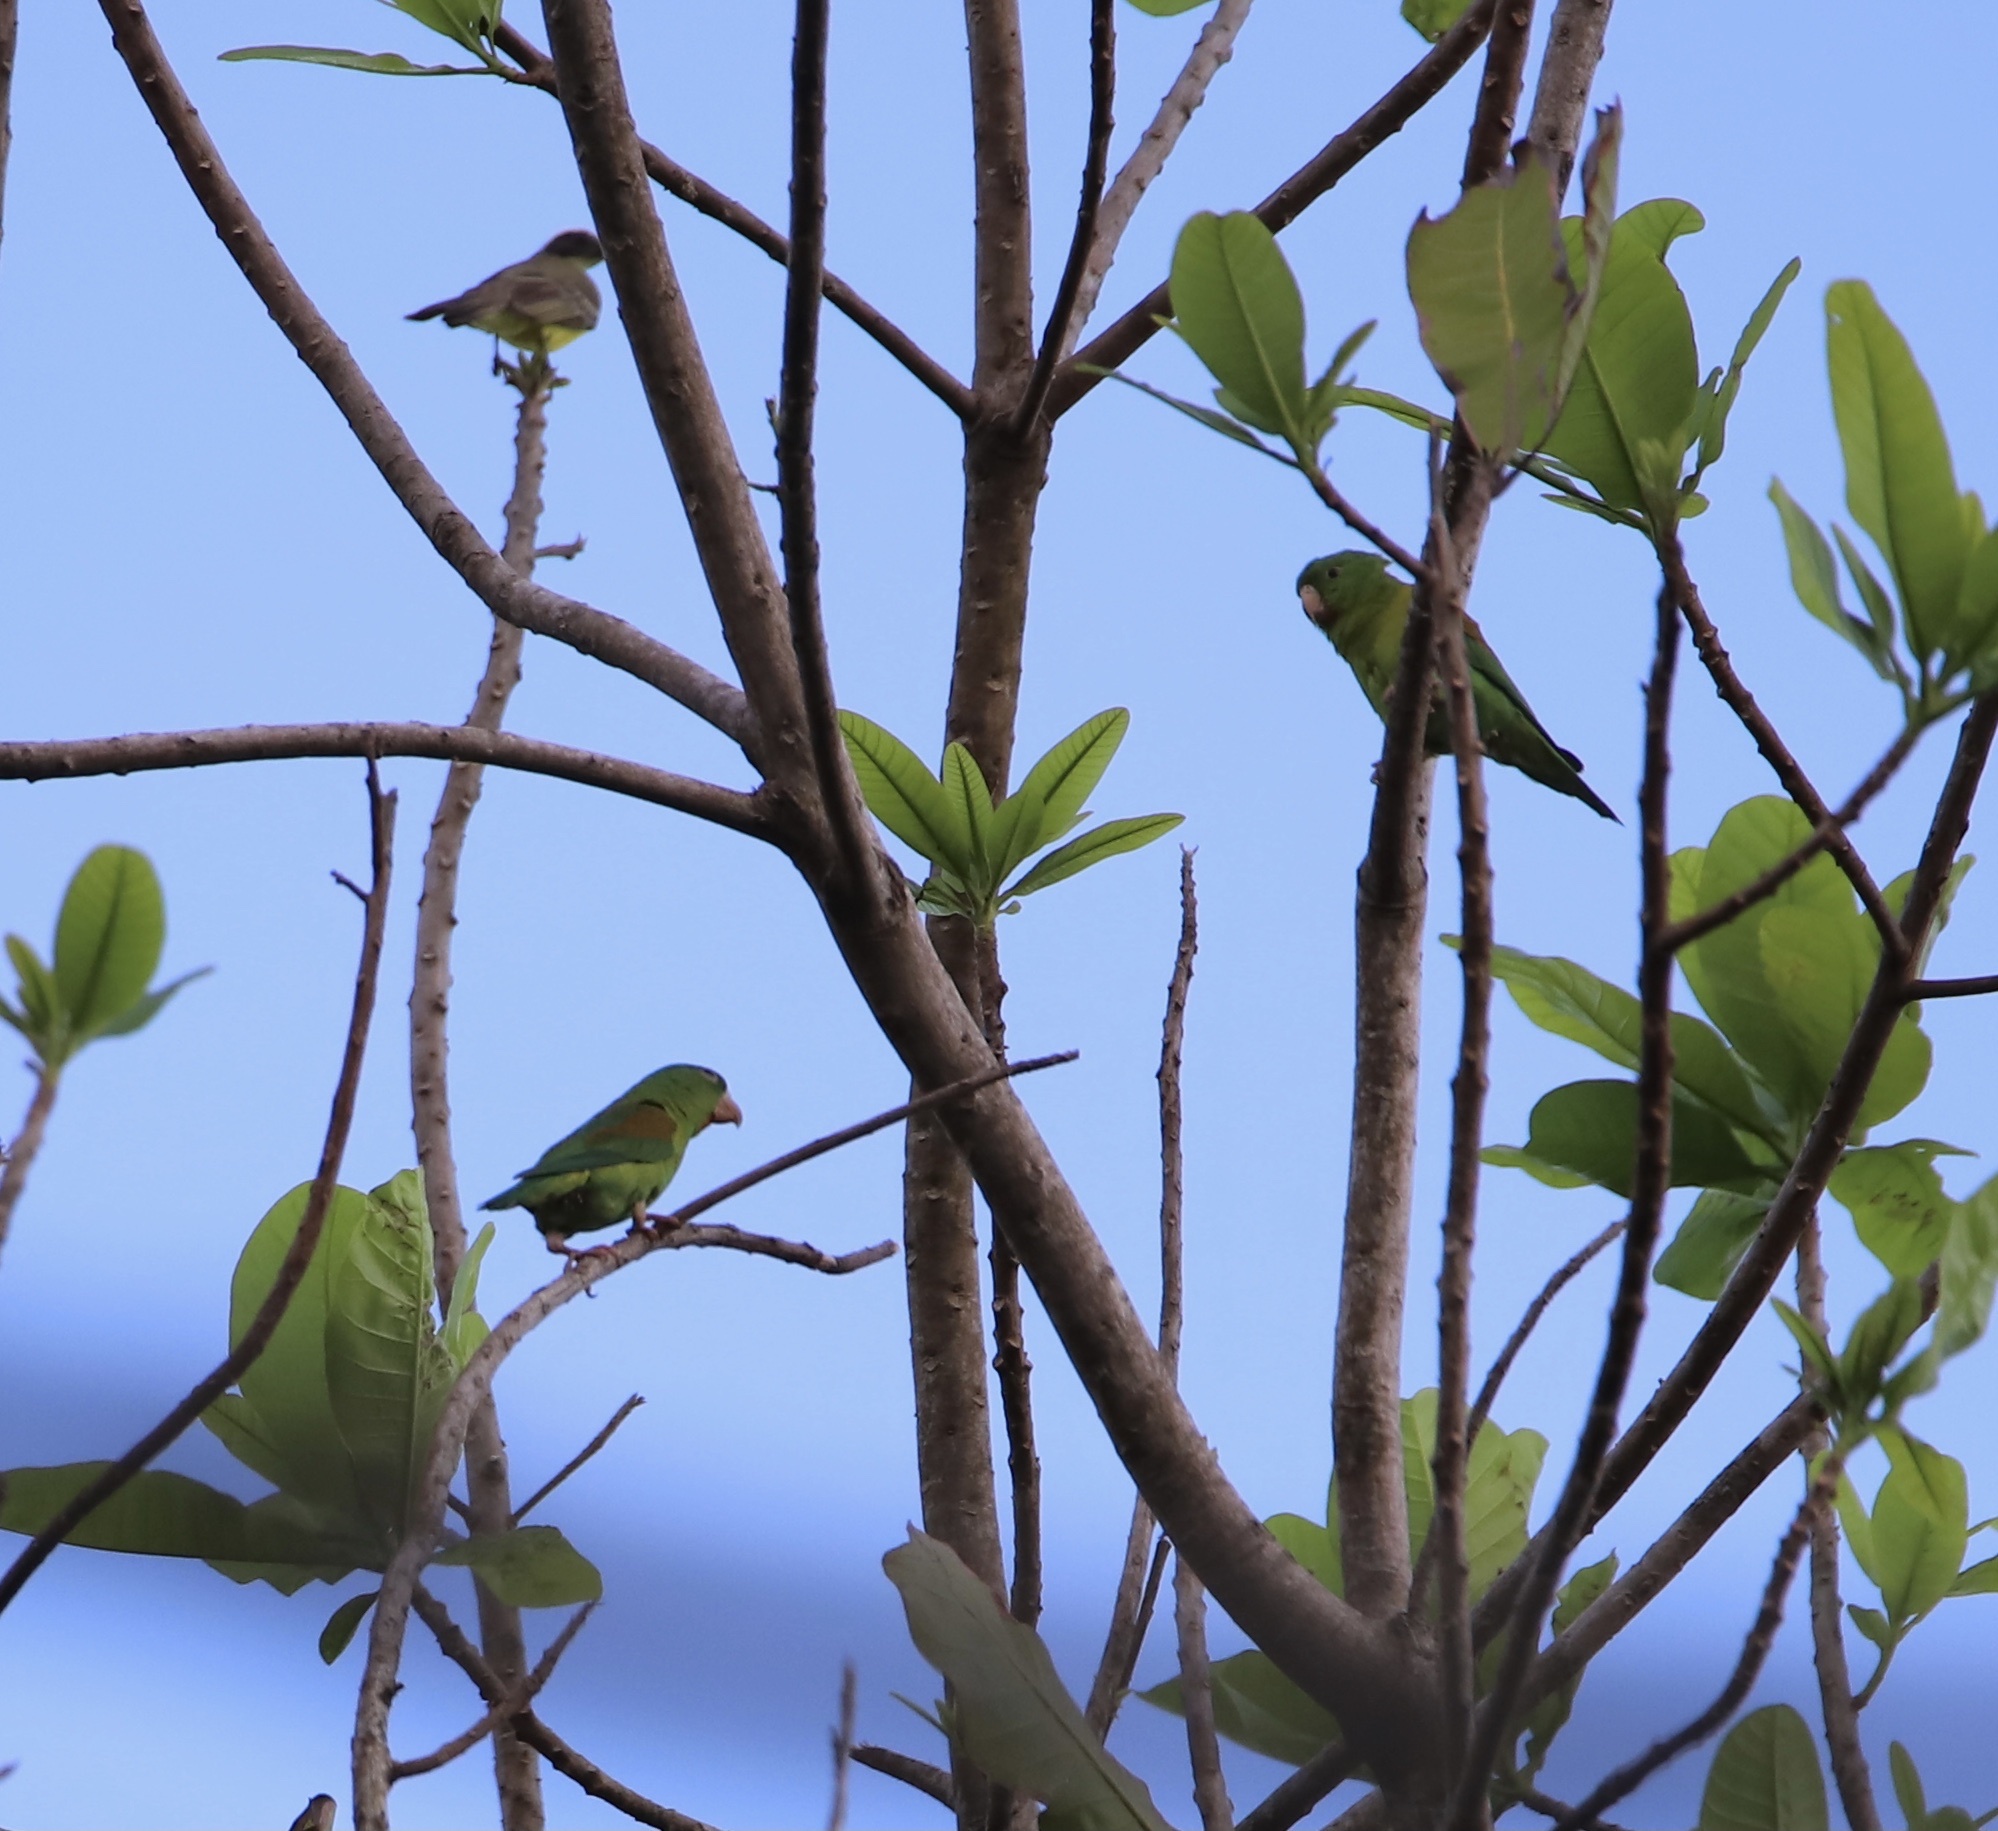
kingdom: Animalia
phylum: Chordata
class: Aves
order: Psittaciformes
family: Psittacidae
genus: Brotogeris
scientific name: Brotogeris jugularis
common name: Orange-chinned parakeet
